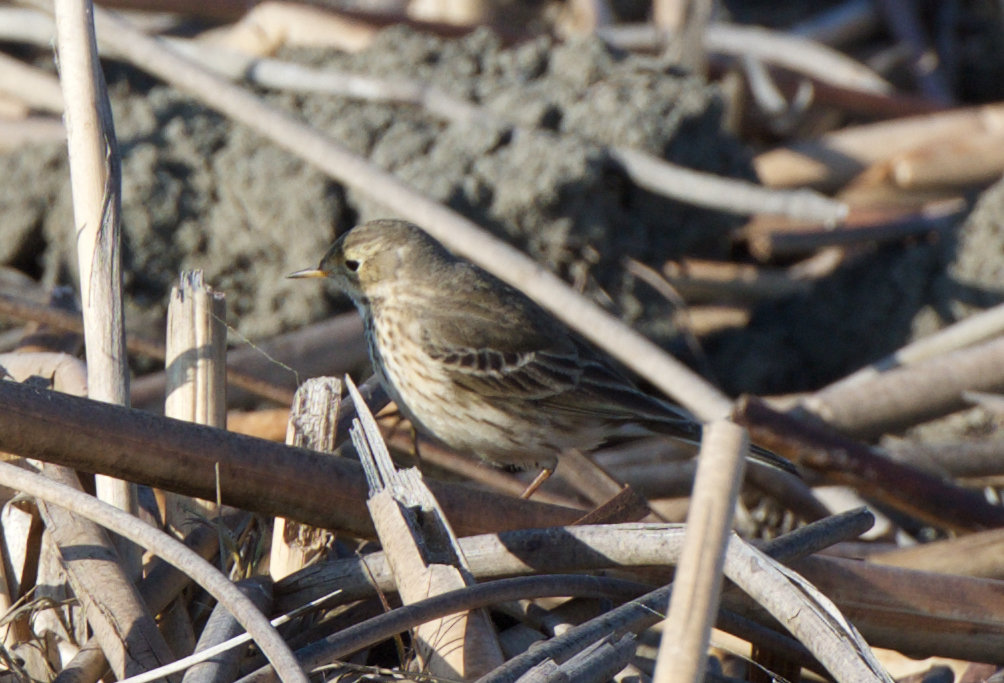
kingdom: Animalia
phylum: Chordata
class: Aves
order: Passeriformes
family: Motacillidae
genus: Anthus
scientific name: Anthus rubescens
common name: Buff-bellied pipit
